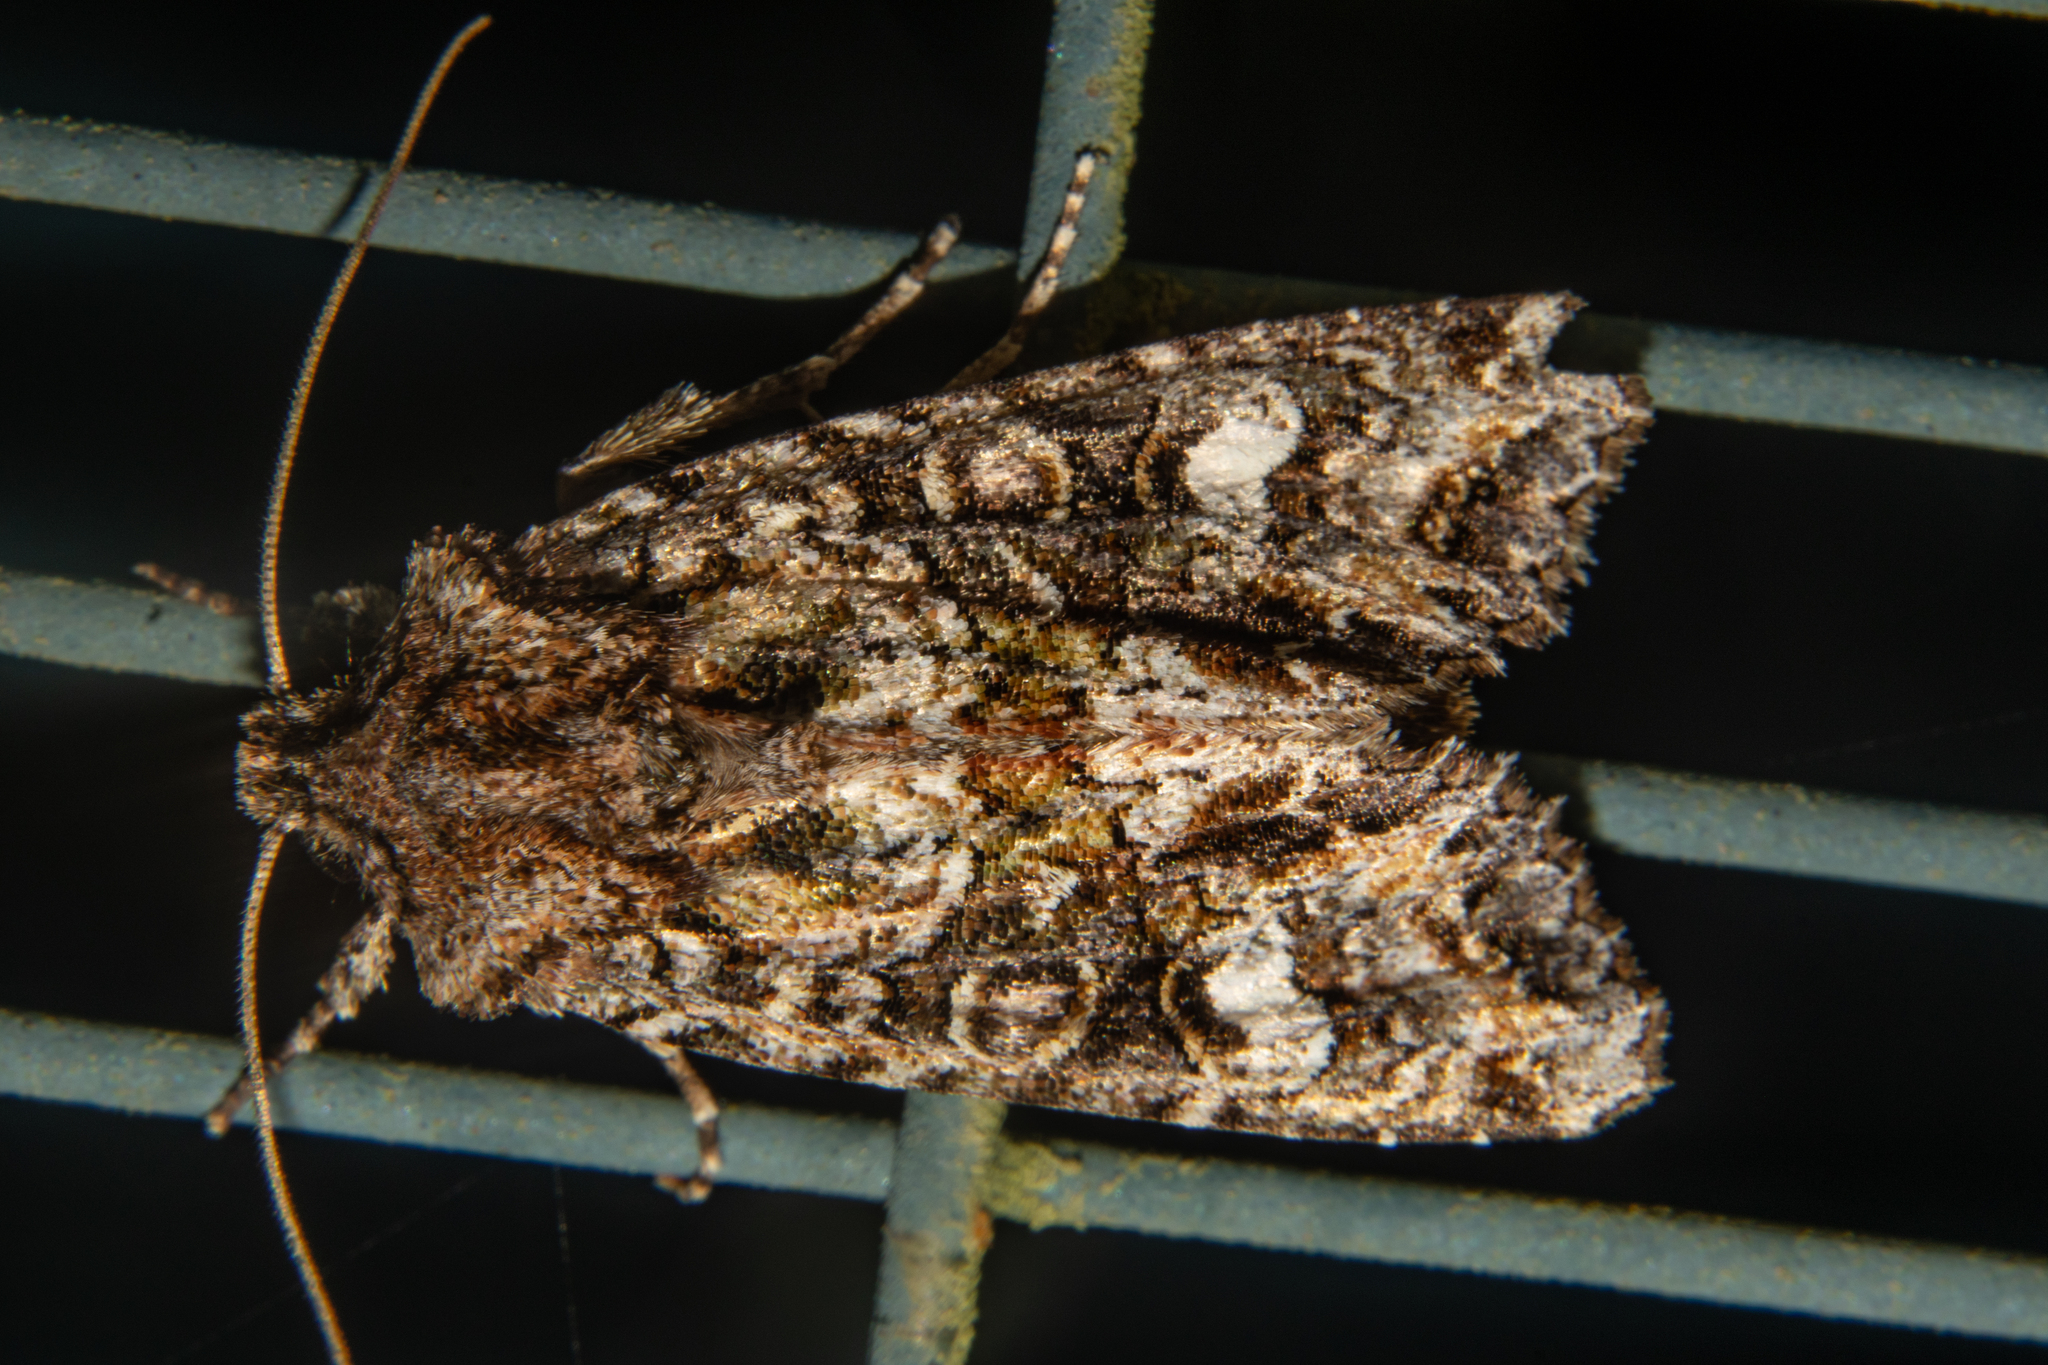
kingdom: Animalia
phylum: Arthropoda
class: Insecta
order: Lepidoptera
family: Noctuidae
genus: Ichneutica
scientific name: Ichneutica
